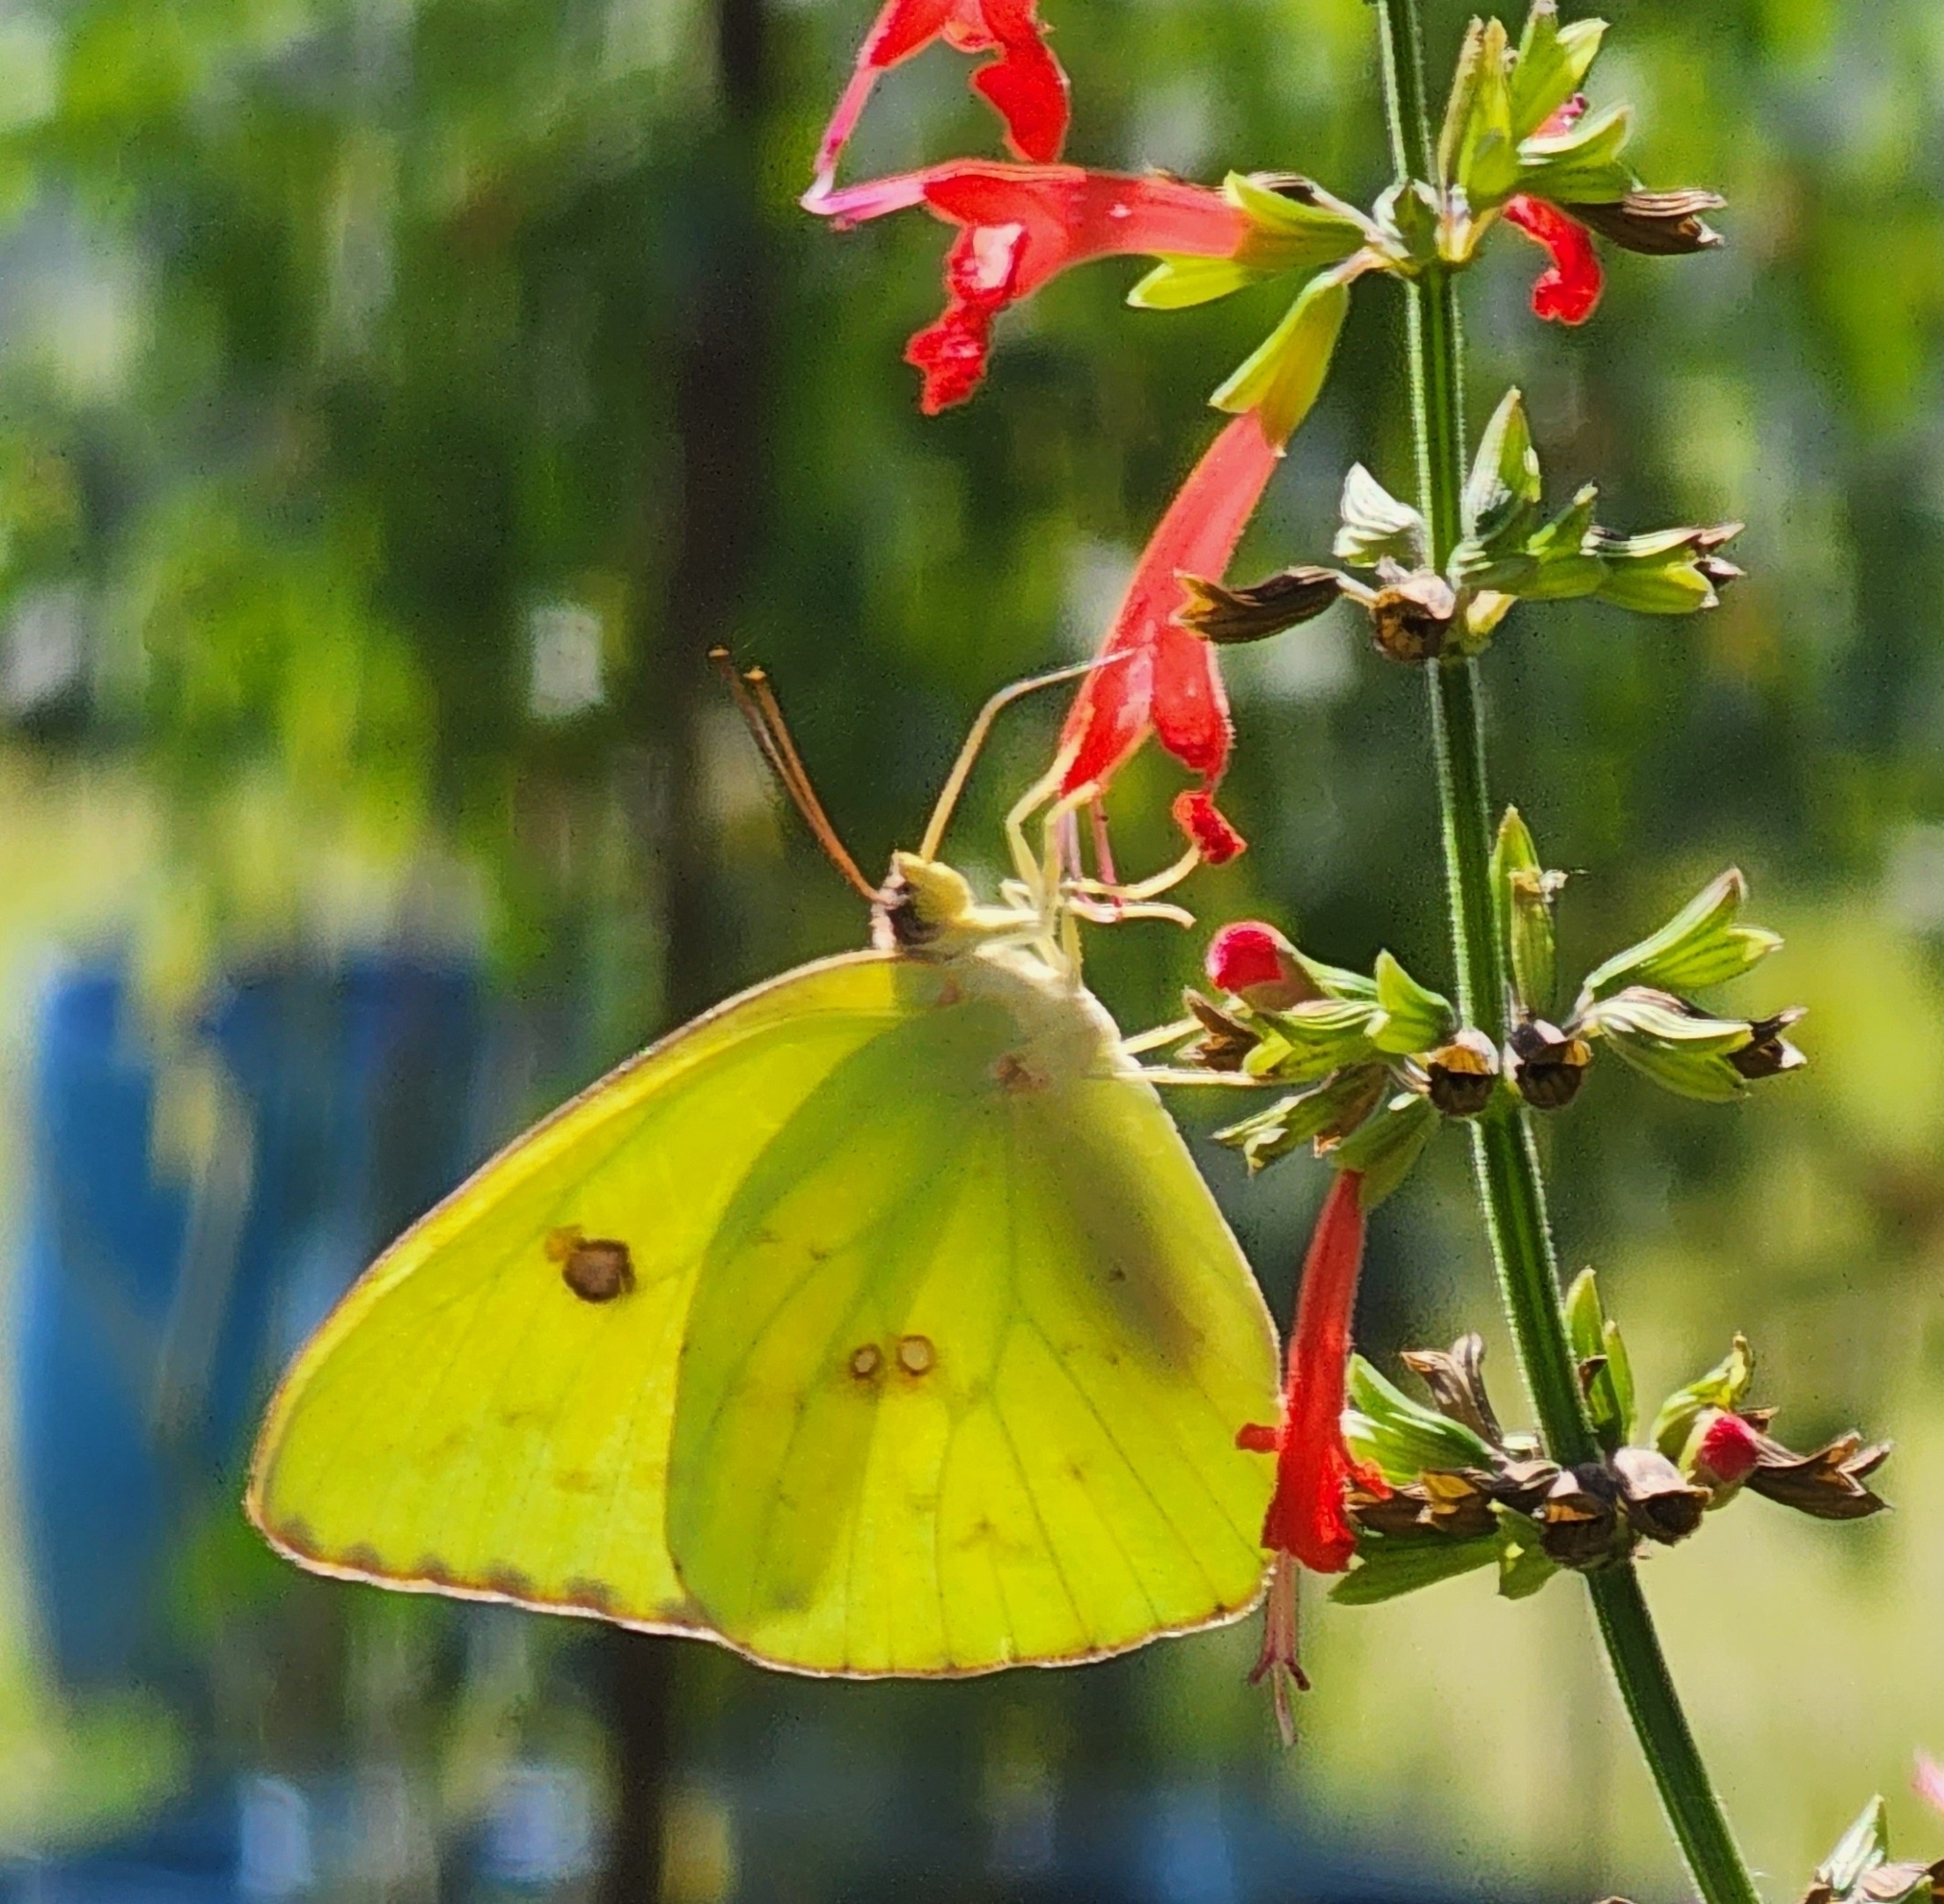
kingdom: Animalia
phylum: Arthropoda
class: Insecta
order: Lepidoptera
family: Pieridae
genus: Phoebis
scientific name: Phoebis sennae
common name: Cloudless sulphur
